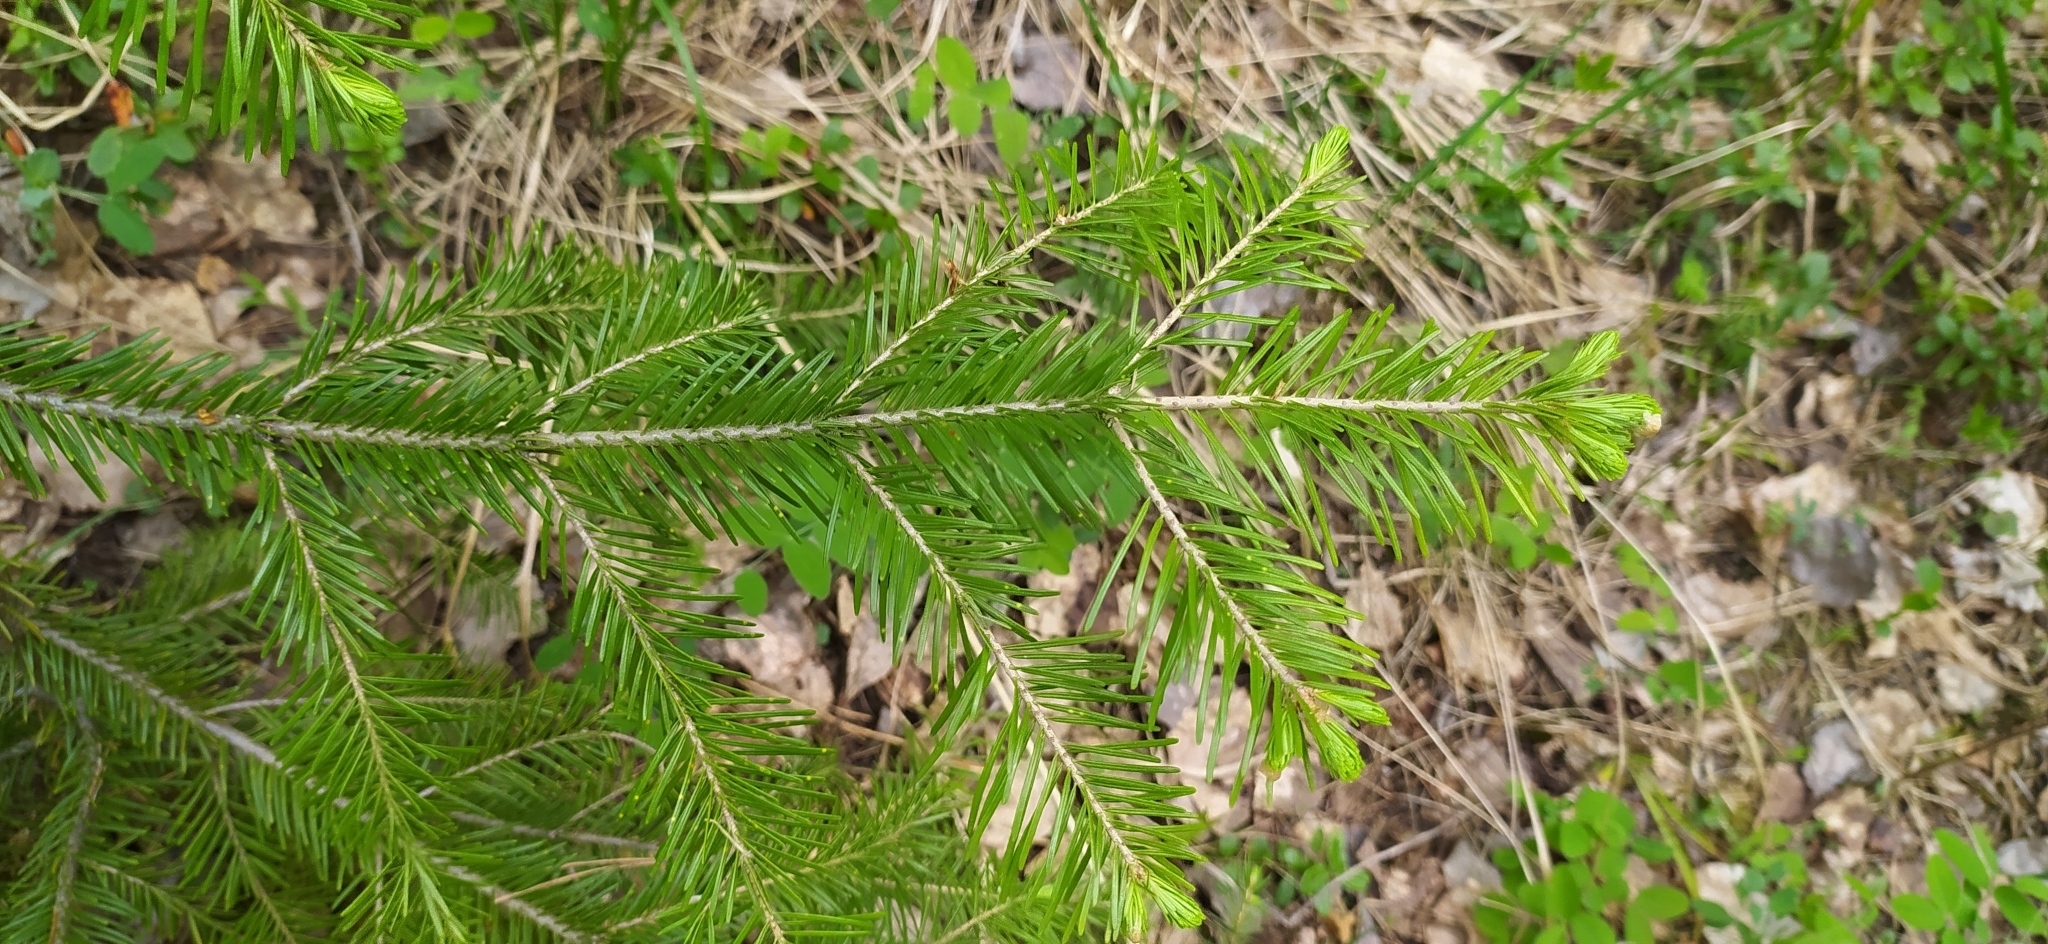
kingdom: Plantae
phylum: Tracheophyta
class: Pinopsida
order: Pinales
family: Pinaceae
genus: Abies
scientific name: Abies sibirica
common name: Siberian fir
